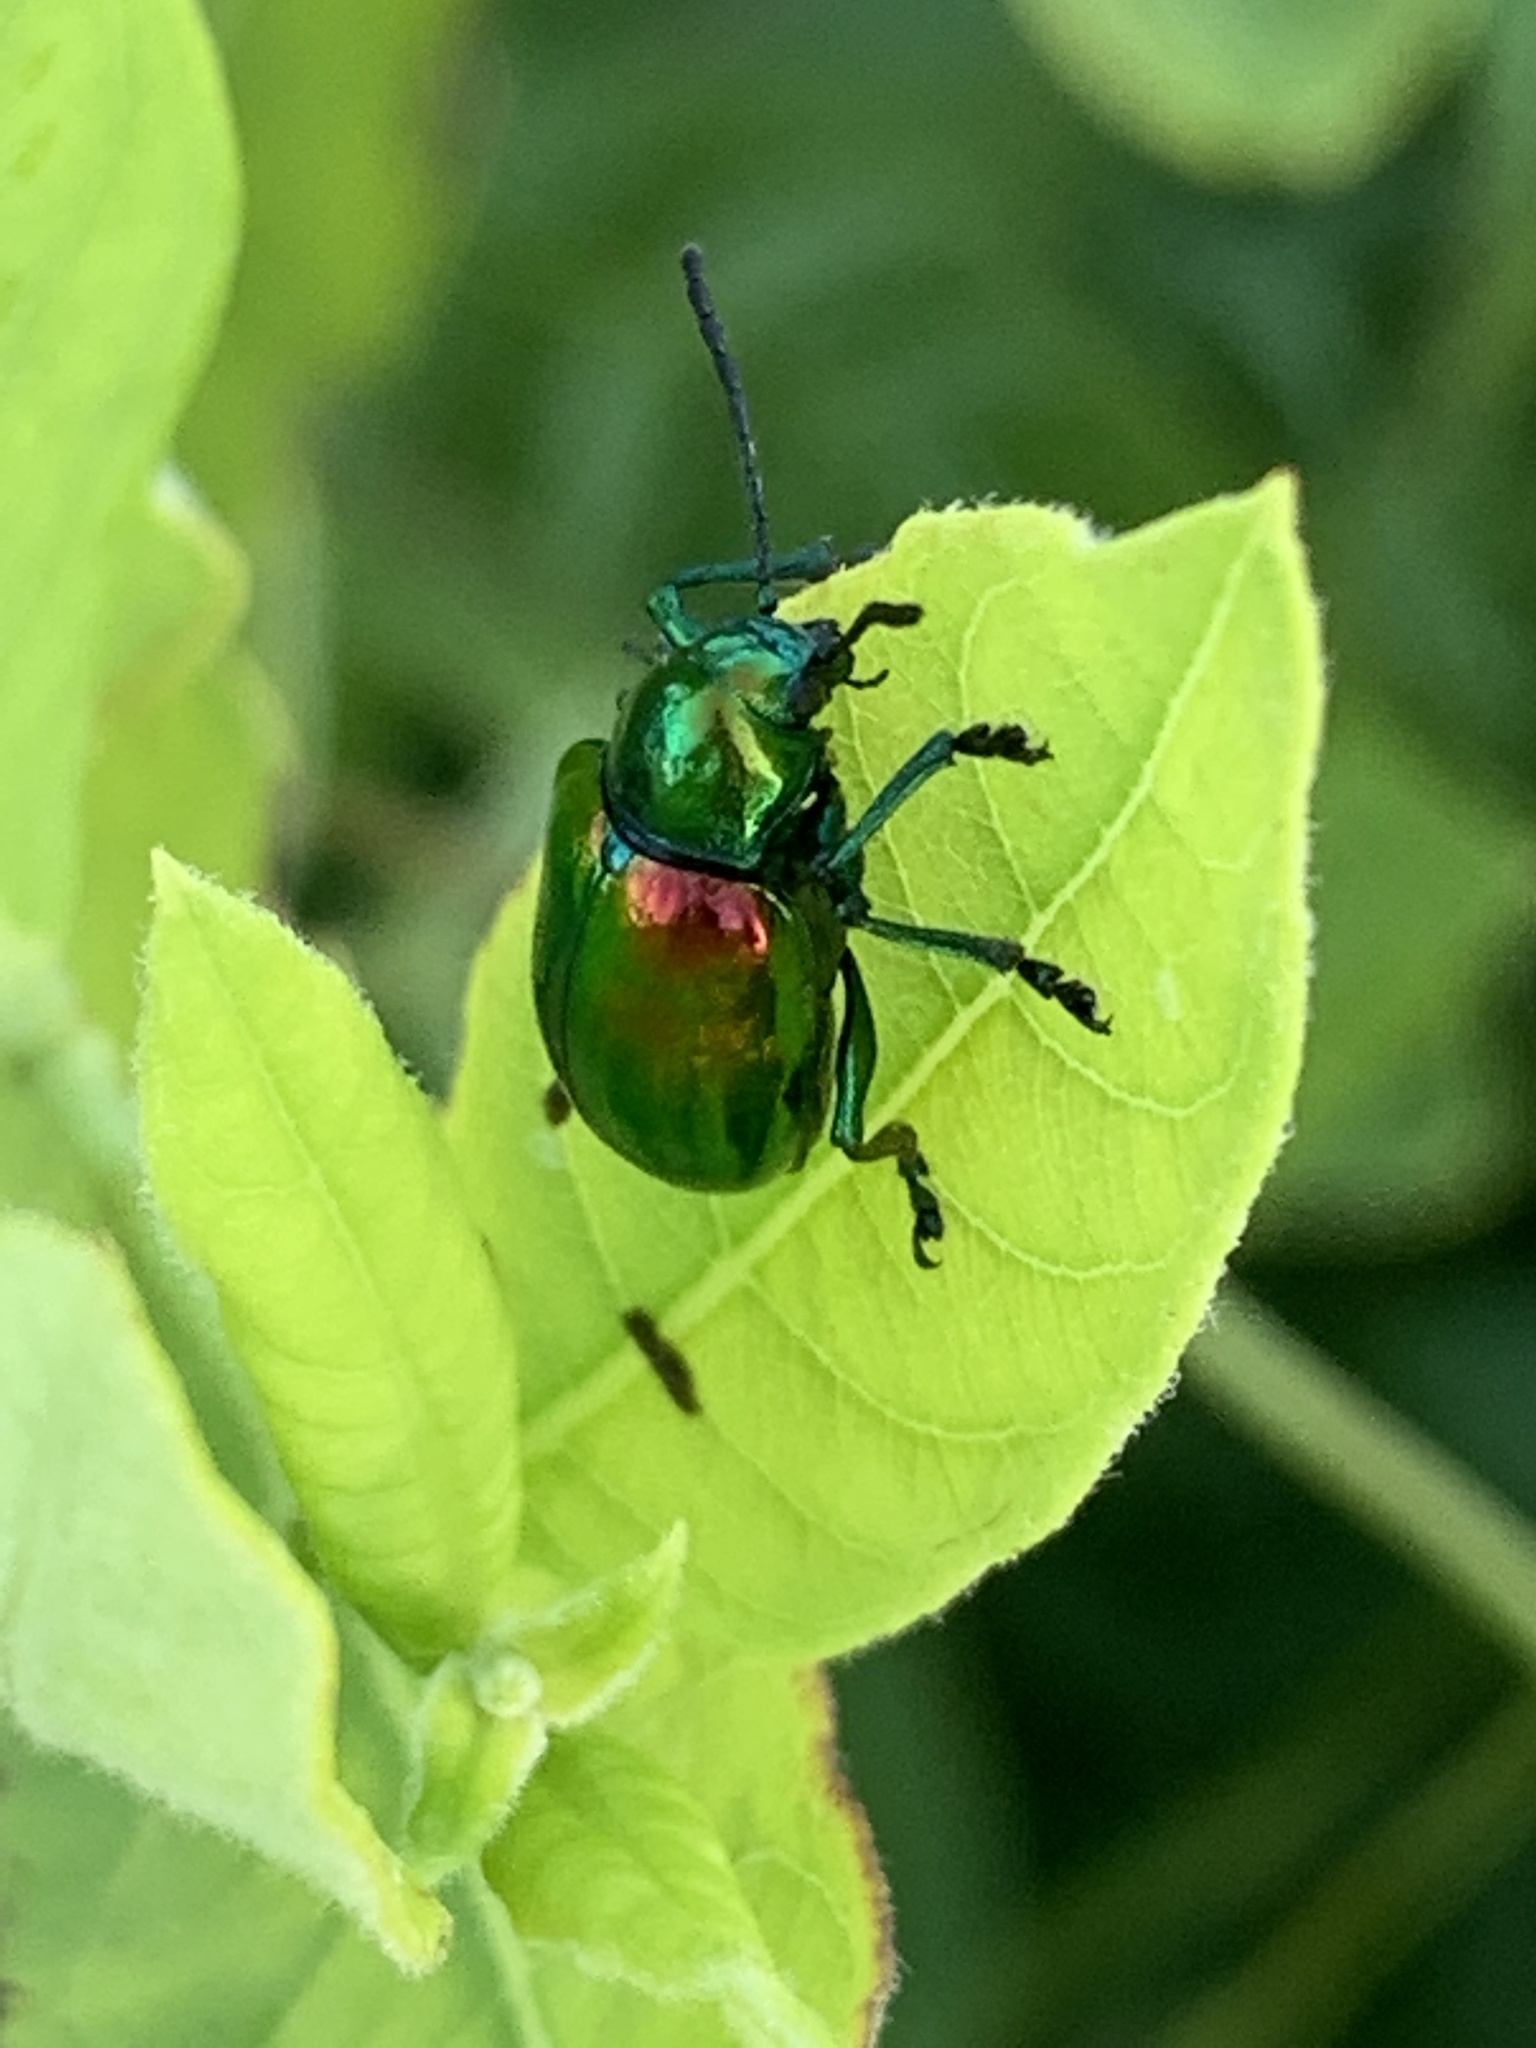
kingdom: Animalia
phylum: Arthropoda
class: Insecta
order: Coleoptera
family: Chrysomelidae
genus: Chrysochus
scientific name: Chrysochus auratus
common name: Dogbane leaf beetle
